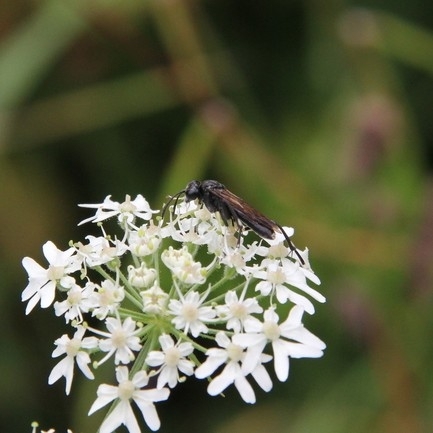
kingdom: Animalia
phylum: Arthropoda
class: Insecta
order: Hymenoptera
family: Tenthredinidae
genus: Macrophya
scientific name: Macrophya montana
